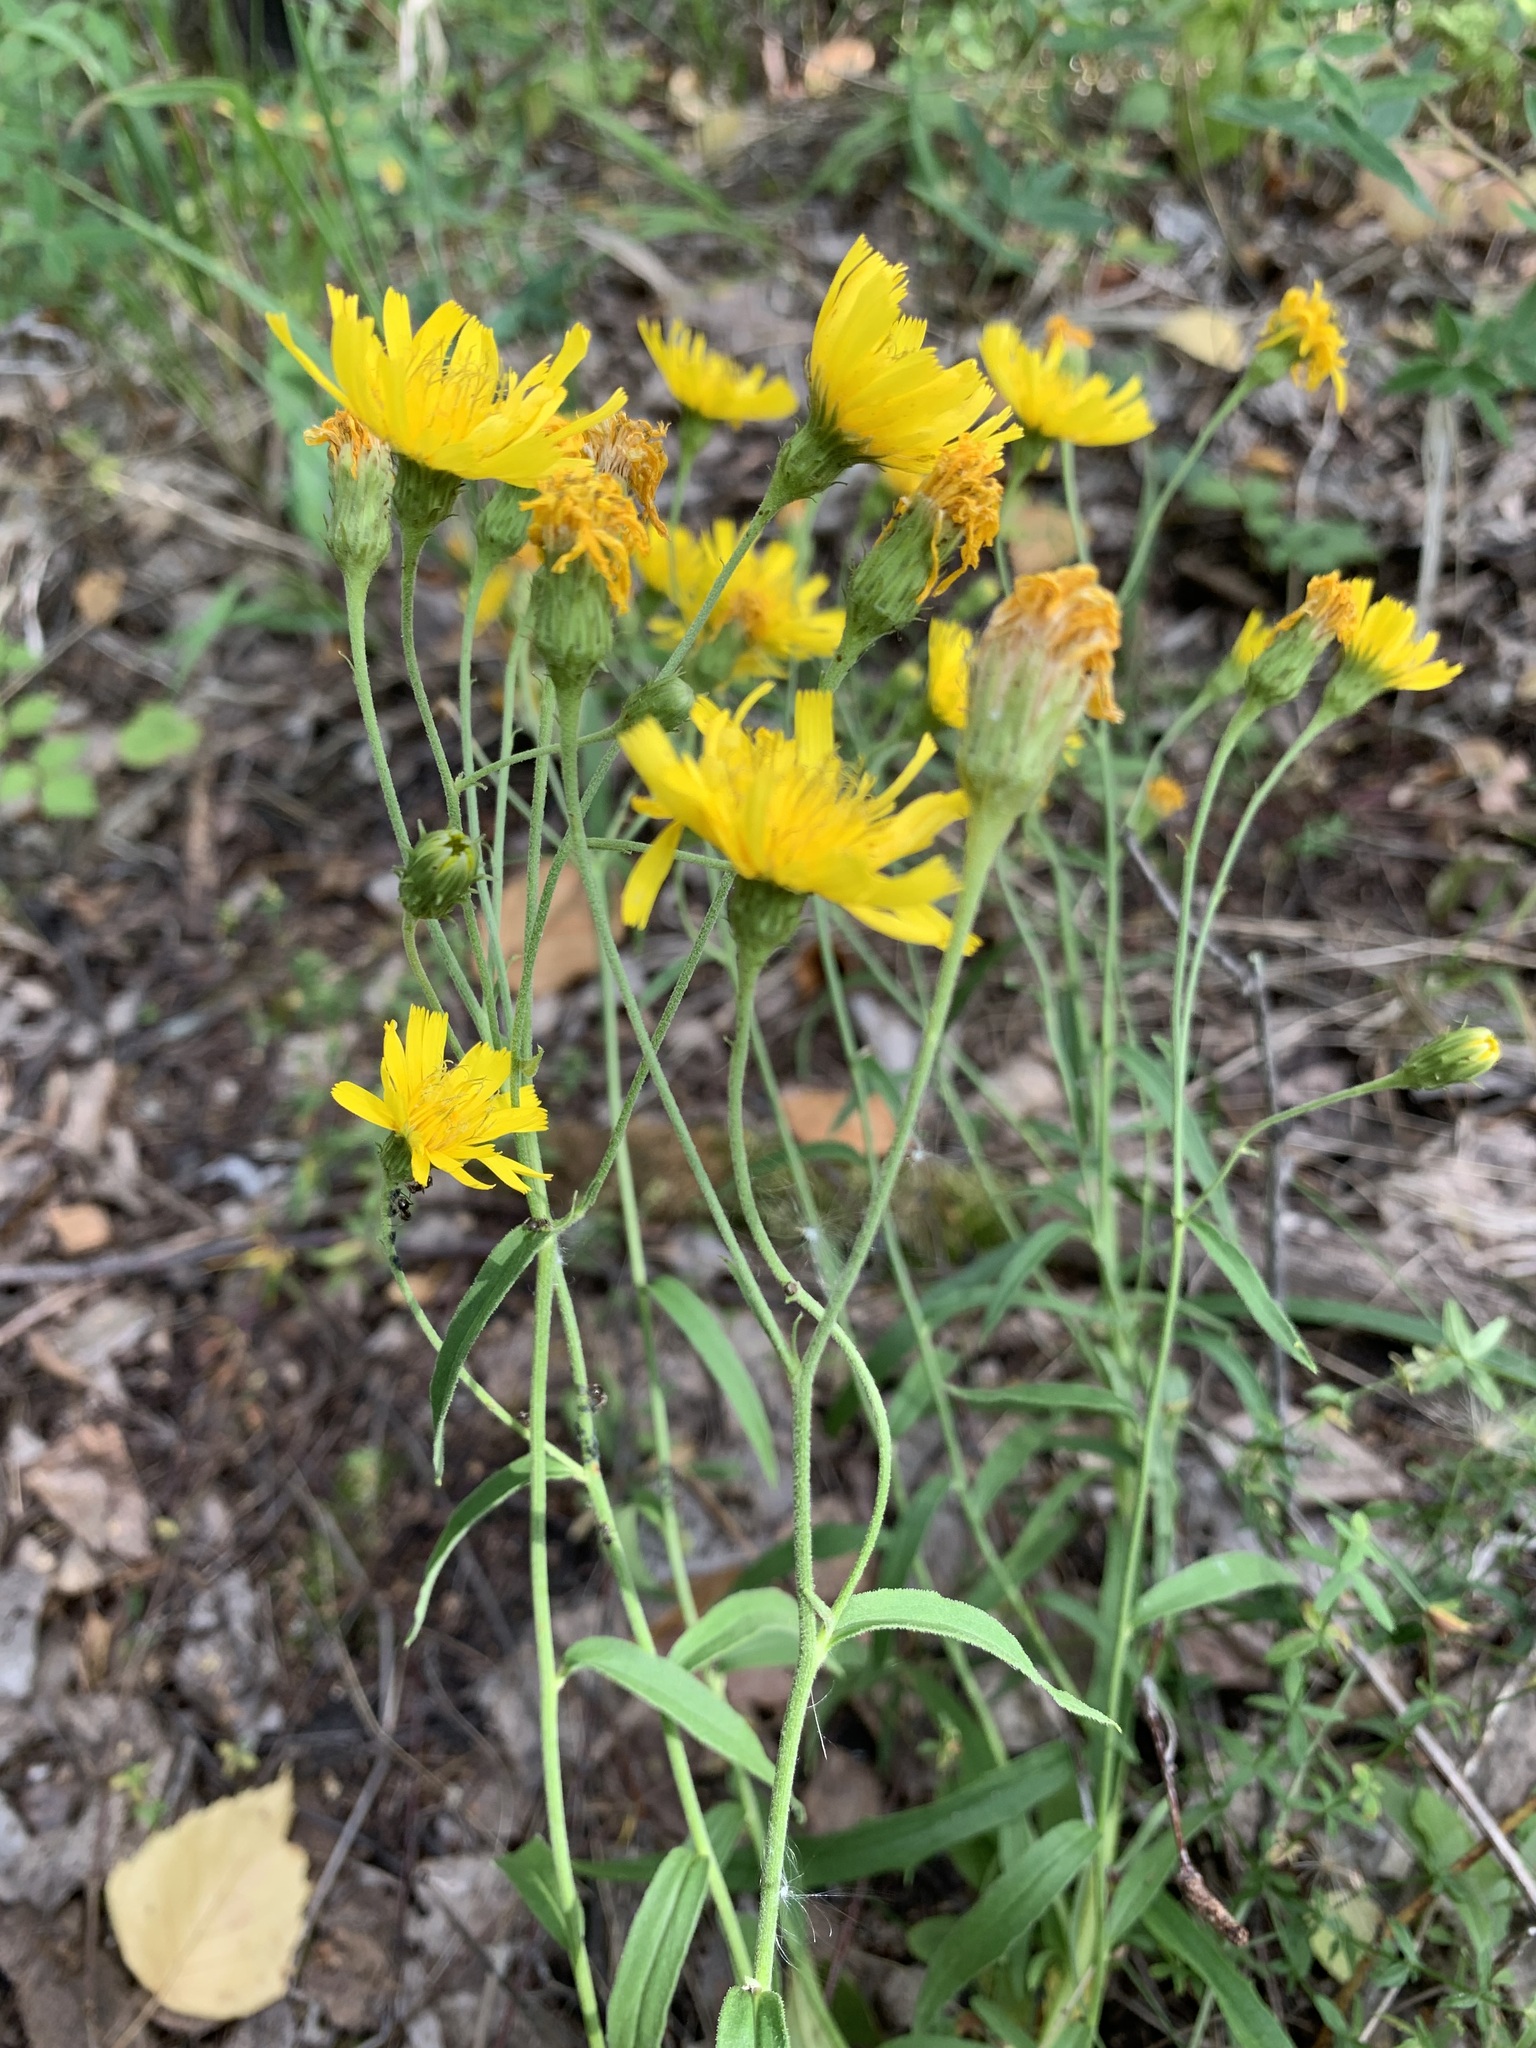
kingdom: Plantae
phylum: Tracheophyta
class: Magnoliopsida
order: Asterales
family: Asteraceae
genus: Hieracium
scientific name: Hieracium umbellatum
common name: Northern hawkweed
